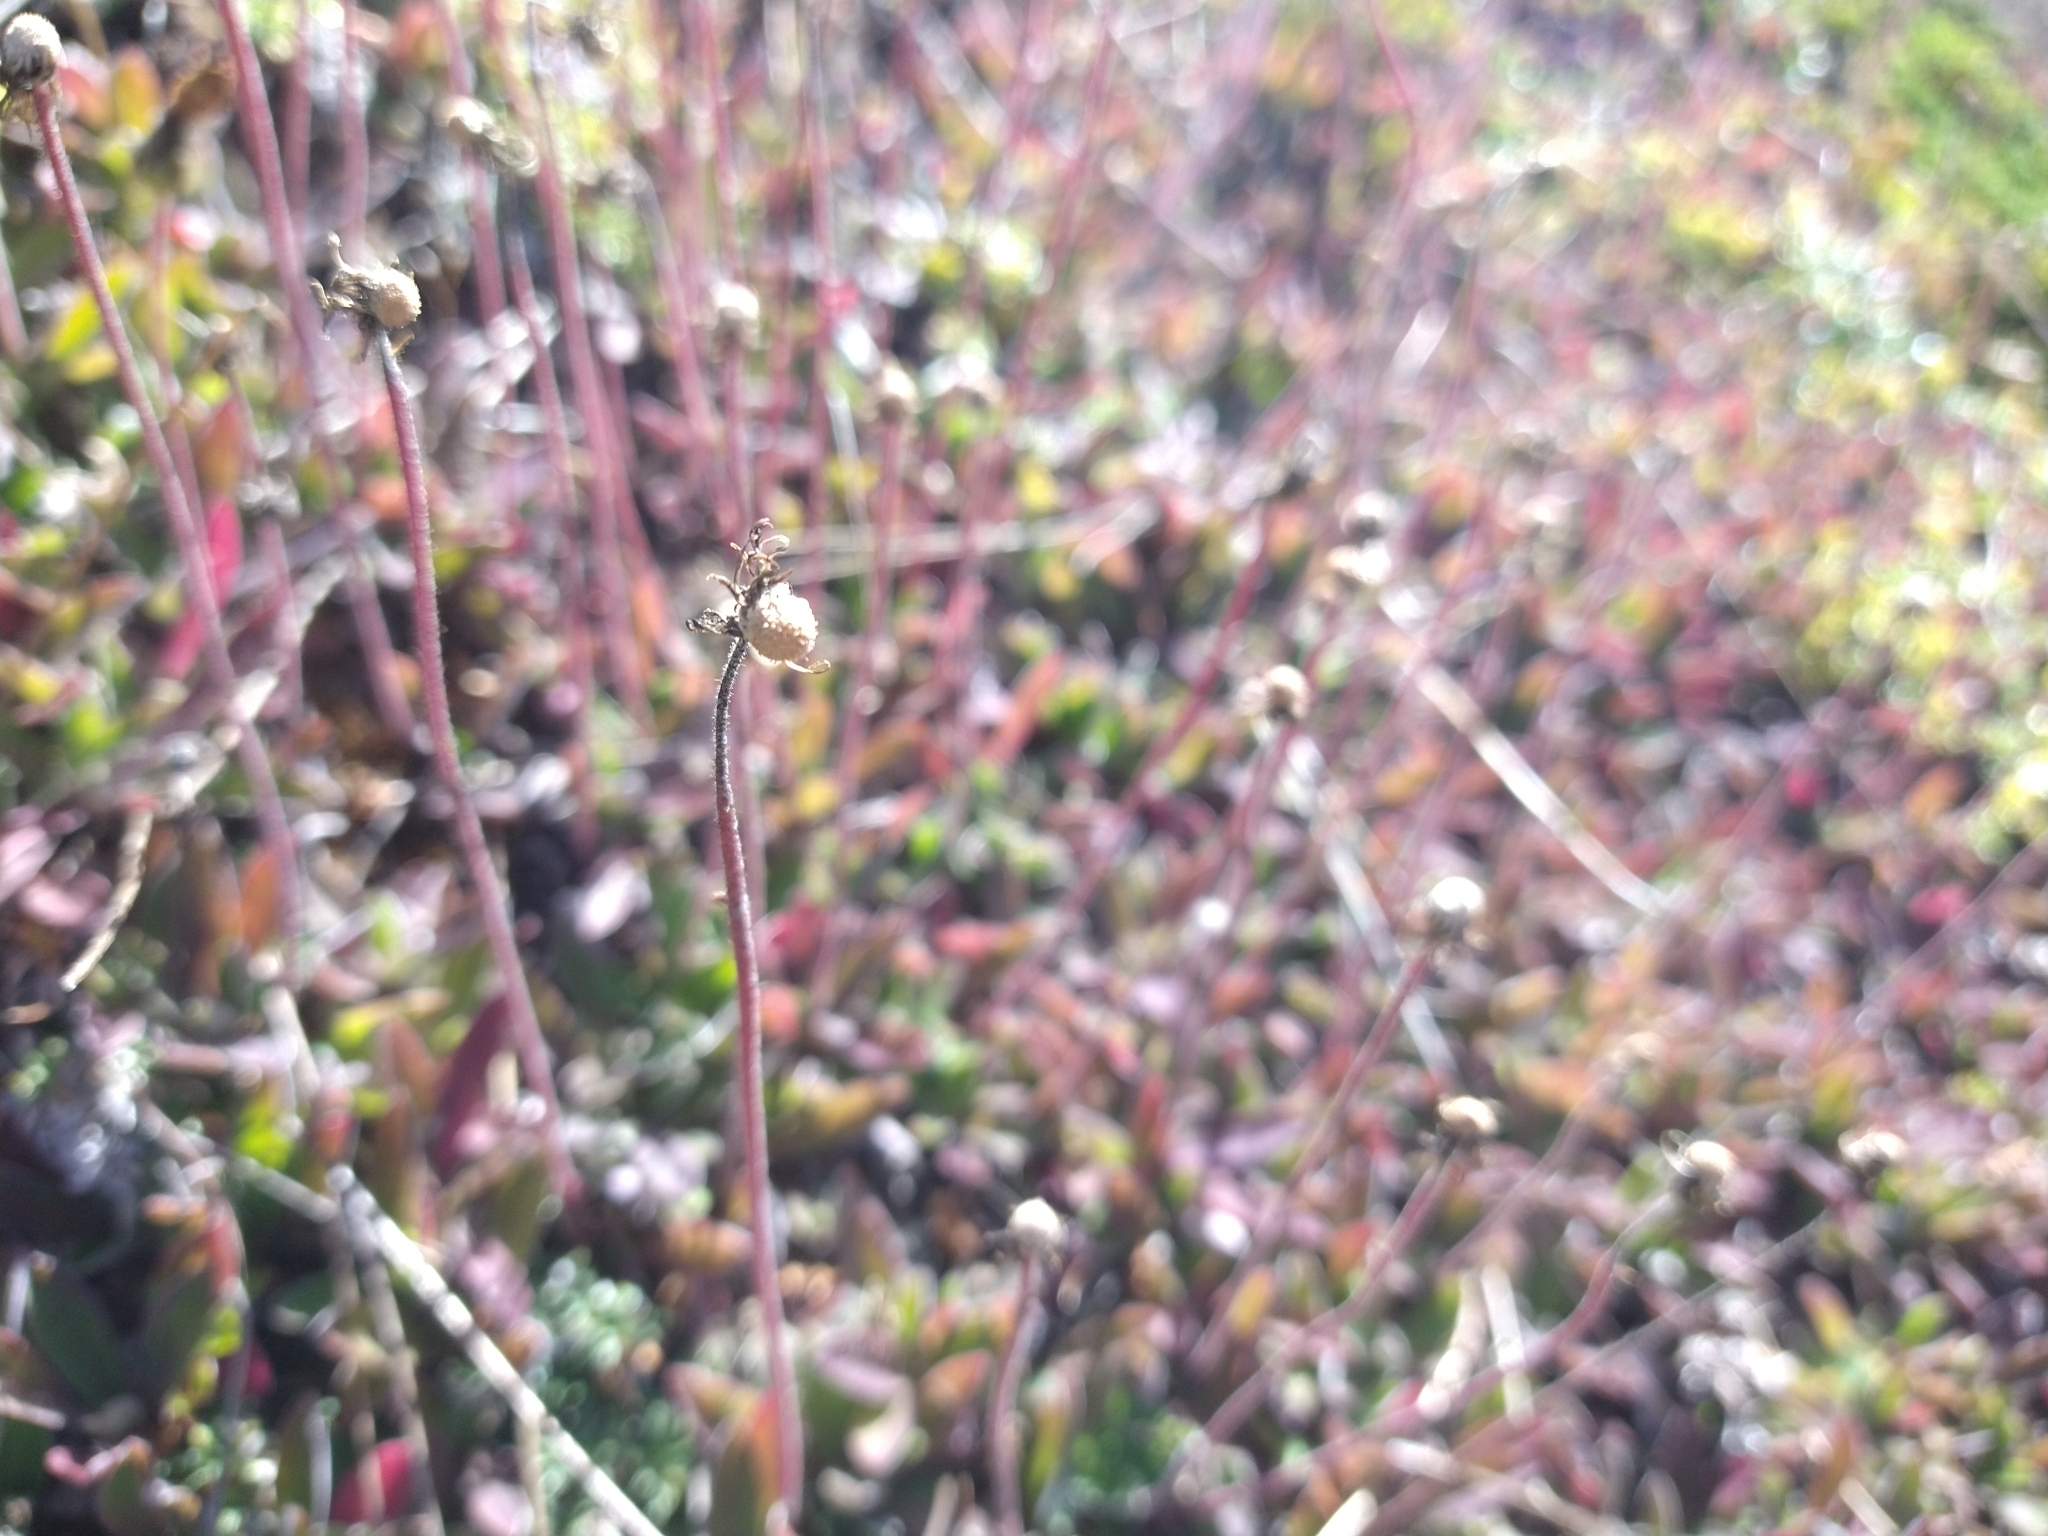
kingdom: Plantae
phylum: Tracheophyta
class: Magnoliopsida
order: Asterales
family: Asteraceae
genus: Pilosella
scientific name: Pilosella officinarum
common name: Mouse-ear hawkweed
